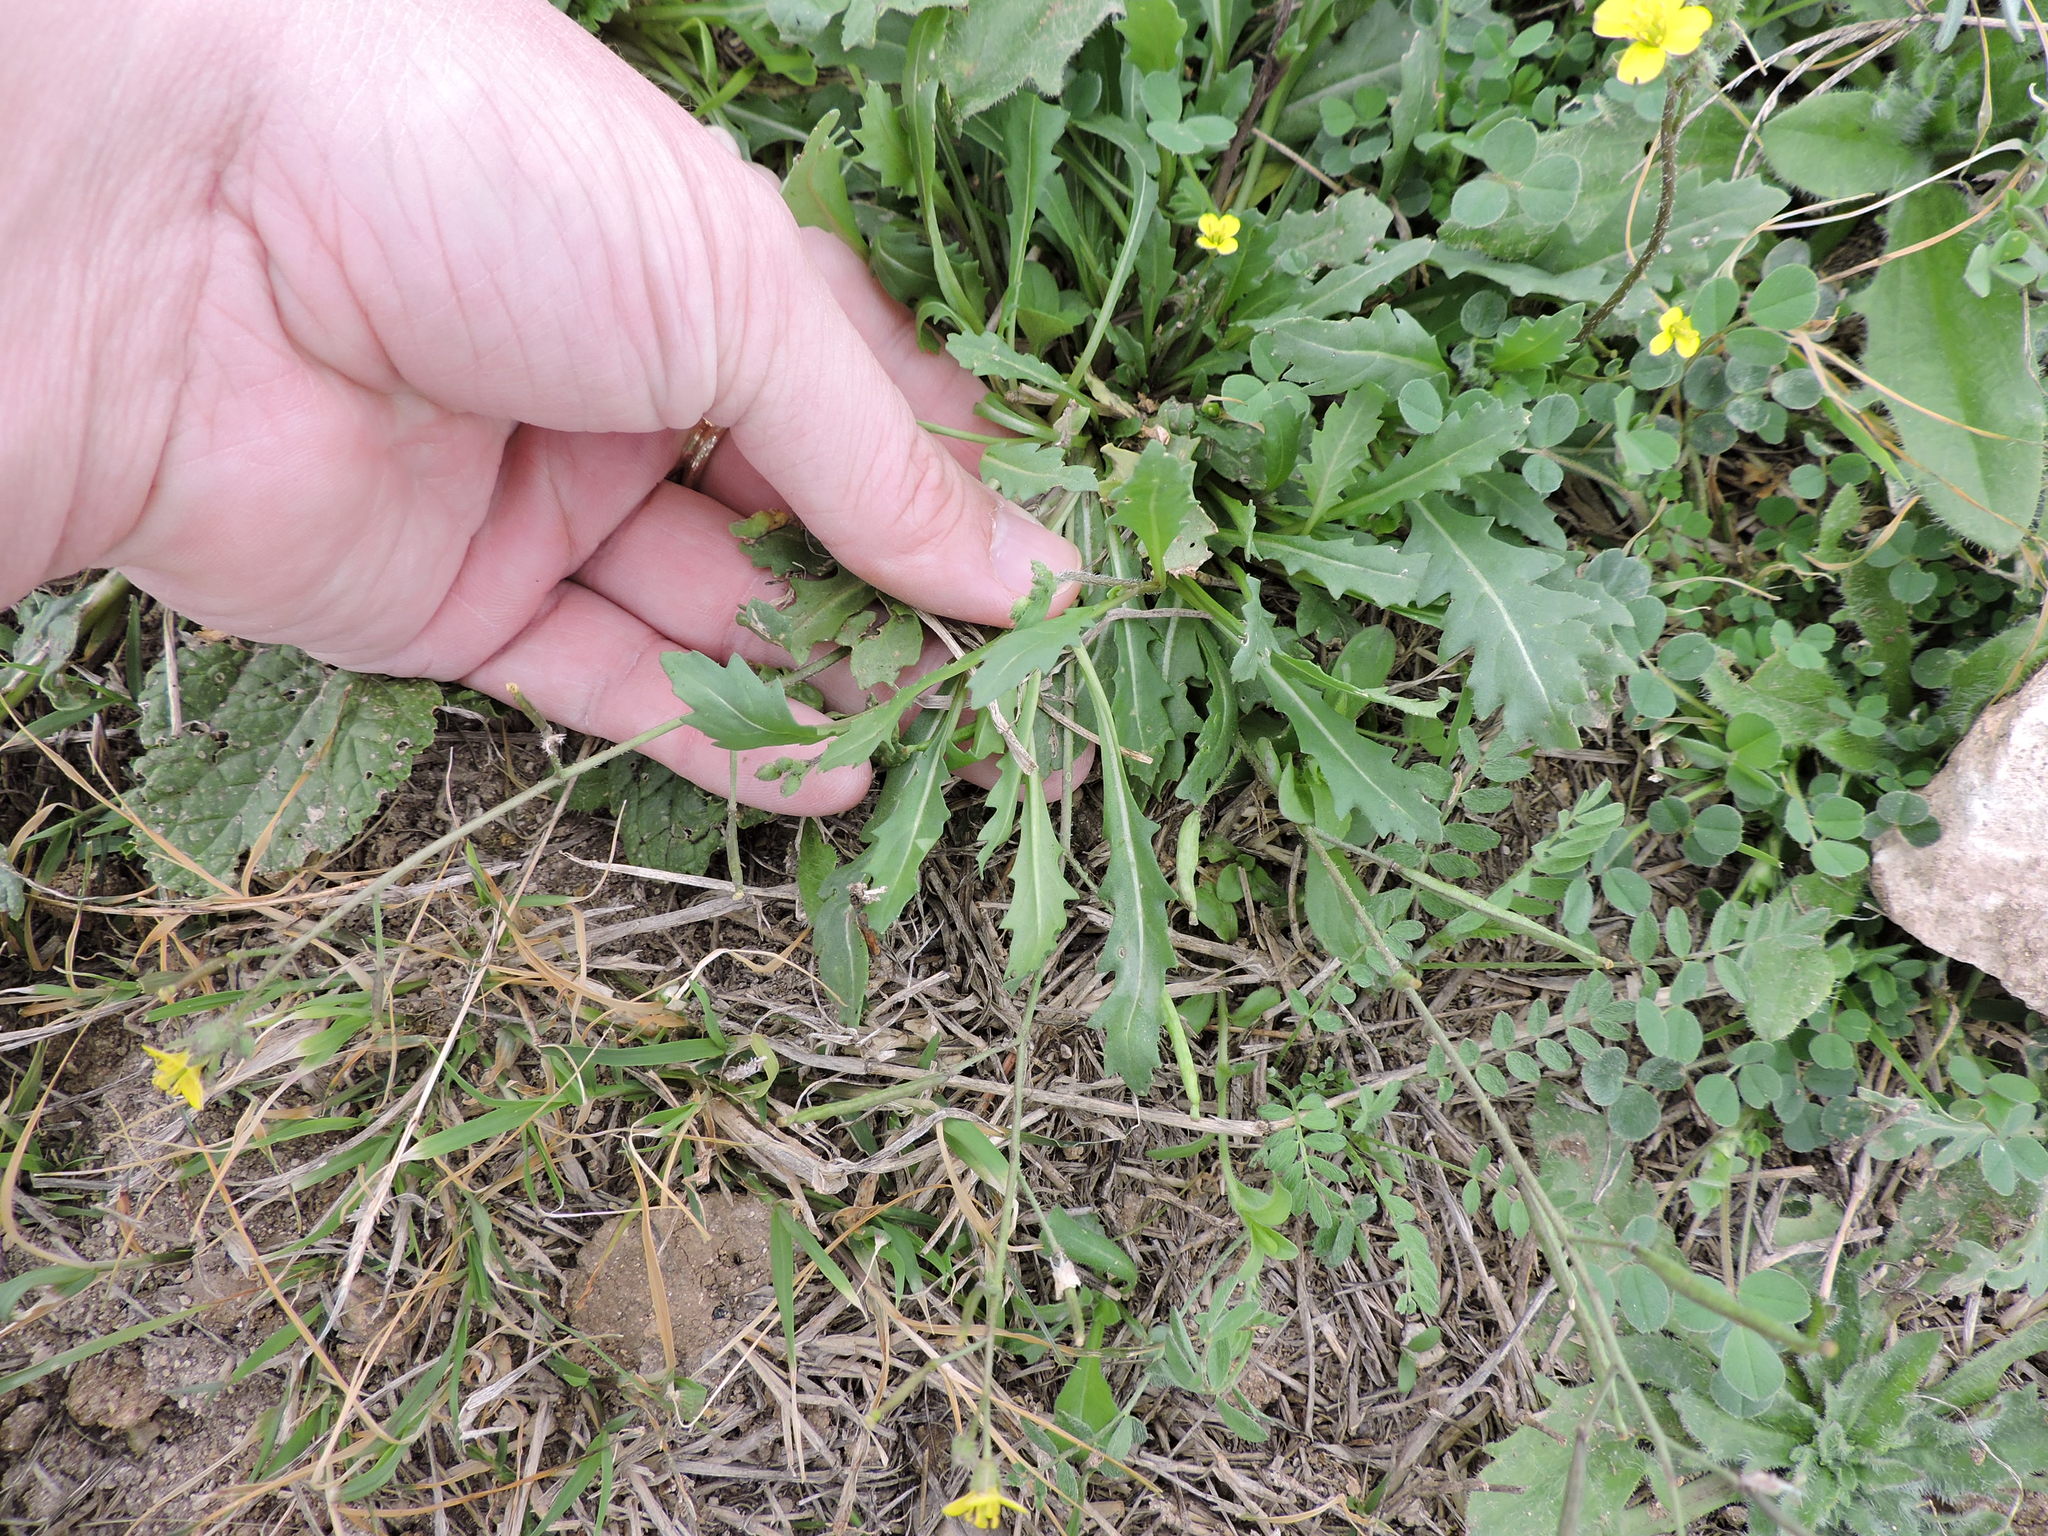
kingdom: Plantae
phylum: Tracheophyta
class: Magnoliopsida
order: Brassicales
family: Brassicaceae
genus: Diplotaxis
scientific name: Diplotaxis muralis
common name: Annual wall-rocket
